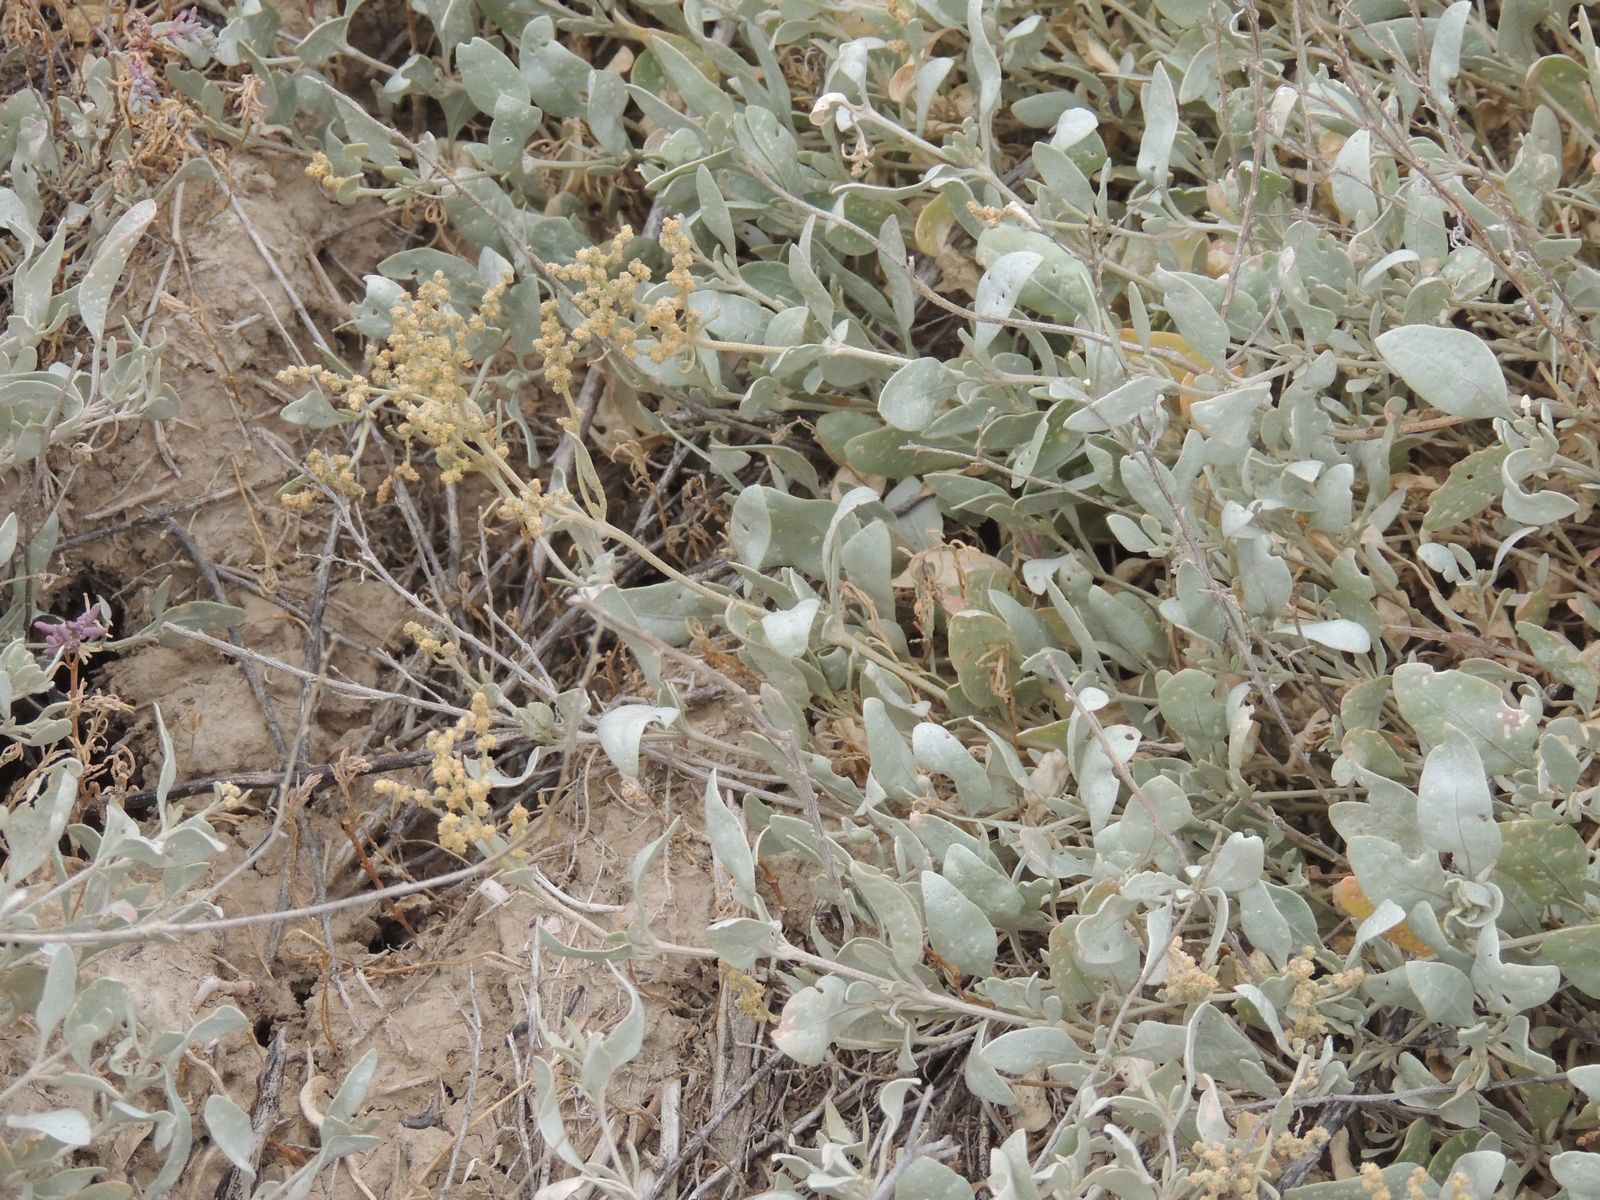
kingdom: Plantae
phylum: Tracheophyta
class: Magnoliopsida
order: Caryophyllales
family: Amaranthaceae
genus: Halimione
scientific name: Halimione verrucifera
